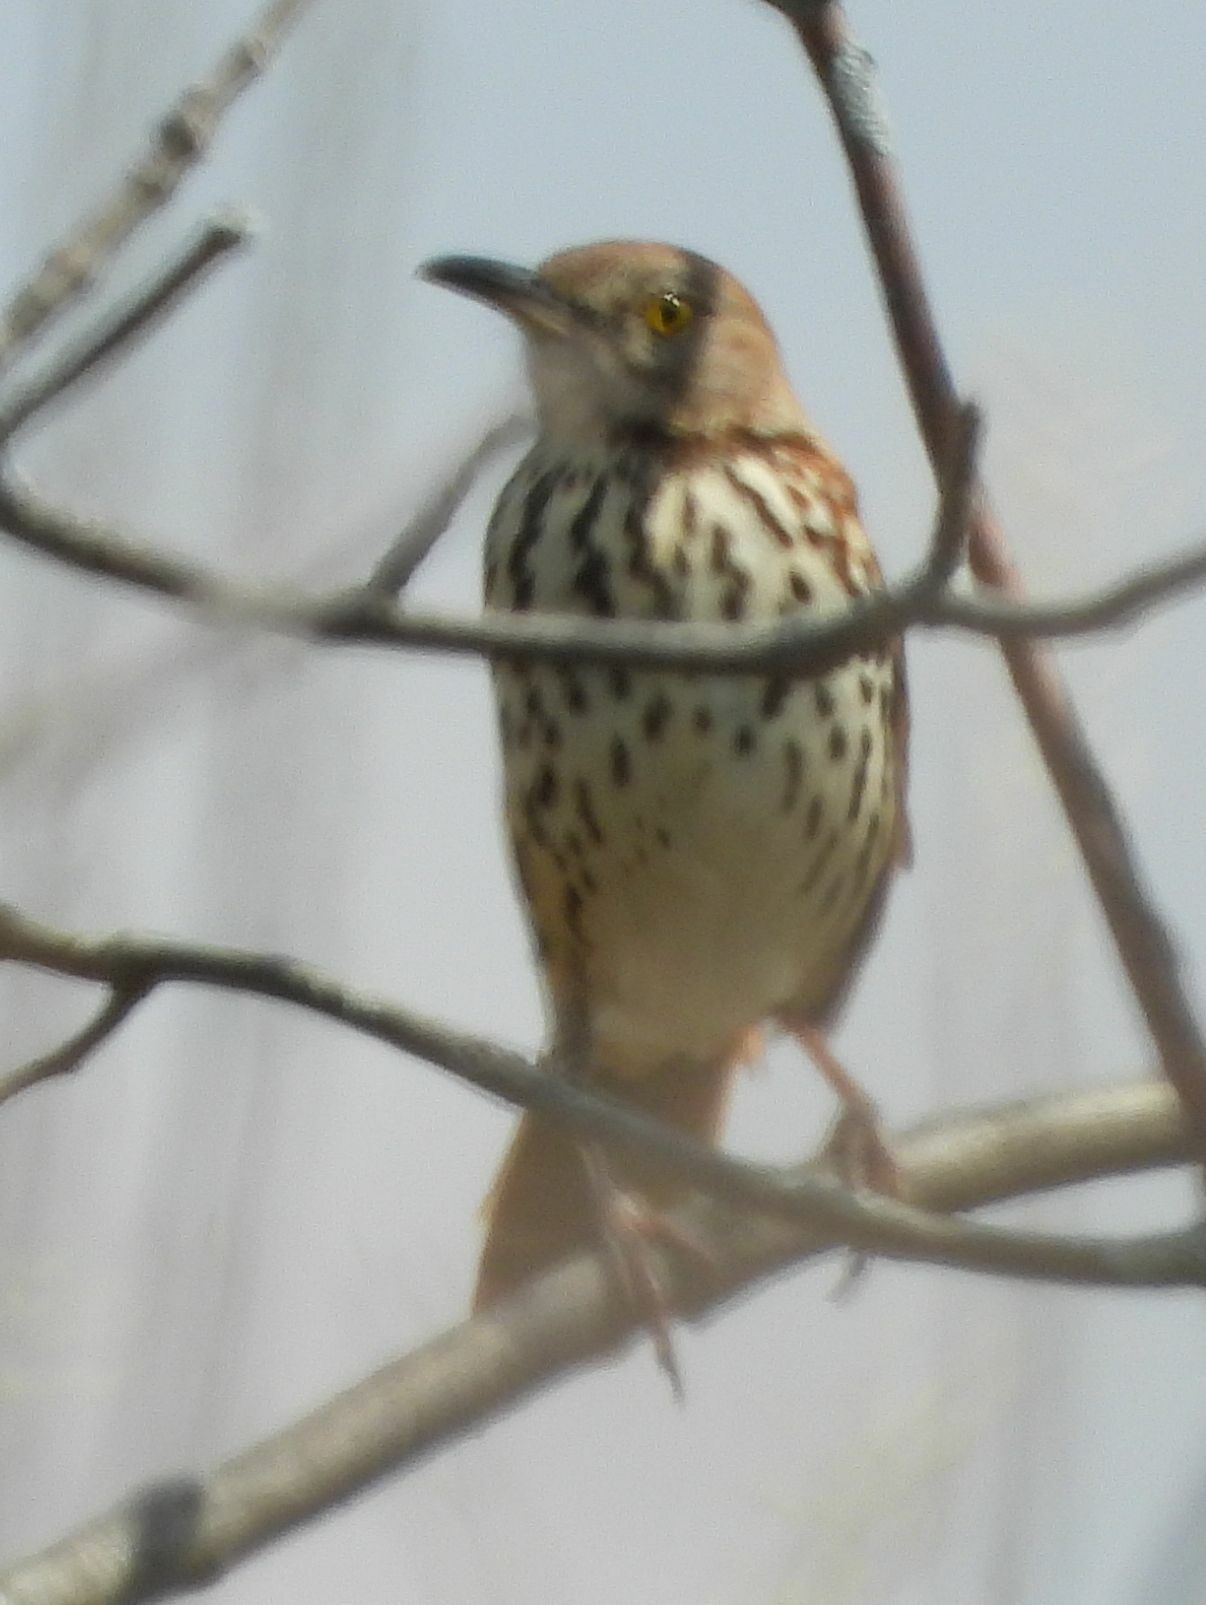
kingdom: Animalia
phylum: Chordata
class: Aves
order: Passeriformes
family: Mimidae
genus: Toxostoma
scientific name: Toxostoma rufum
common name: Brown thrasher
